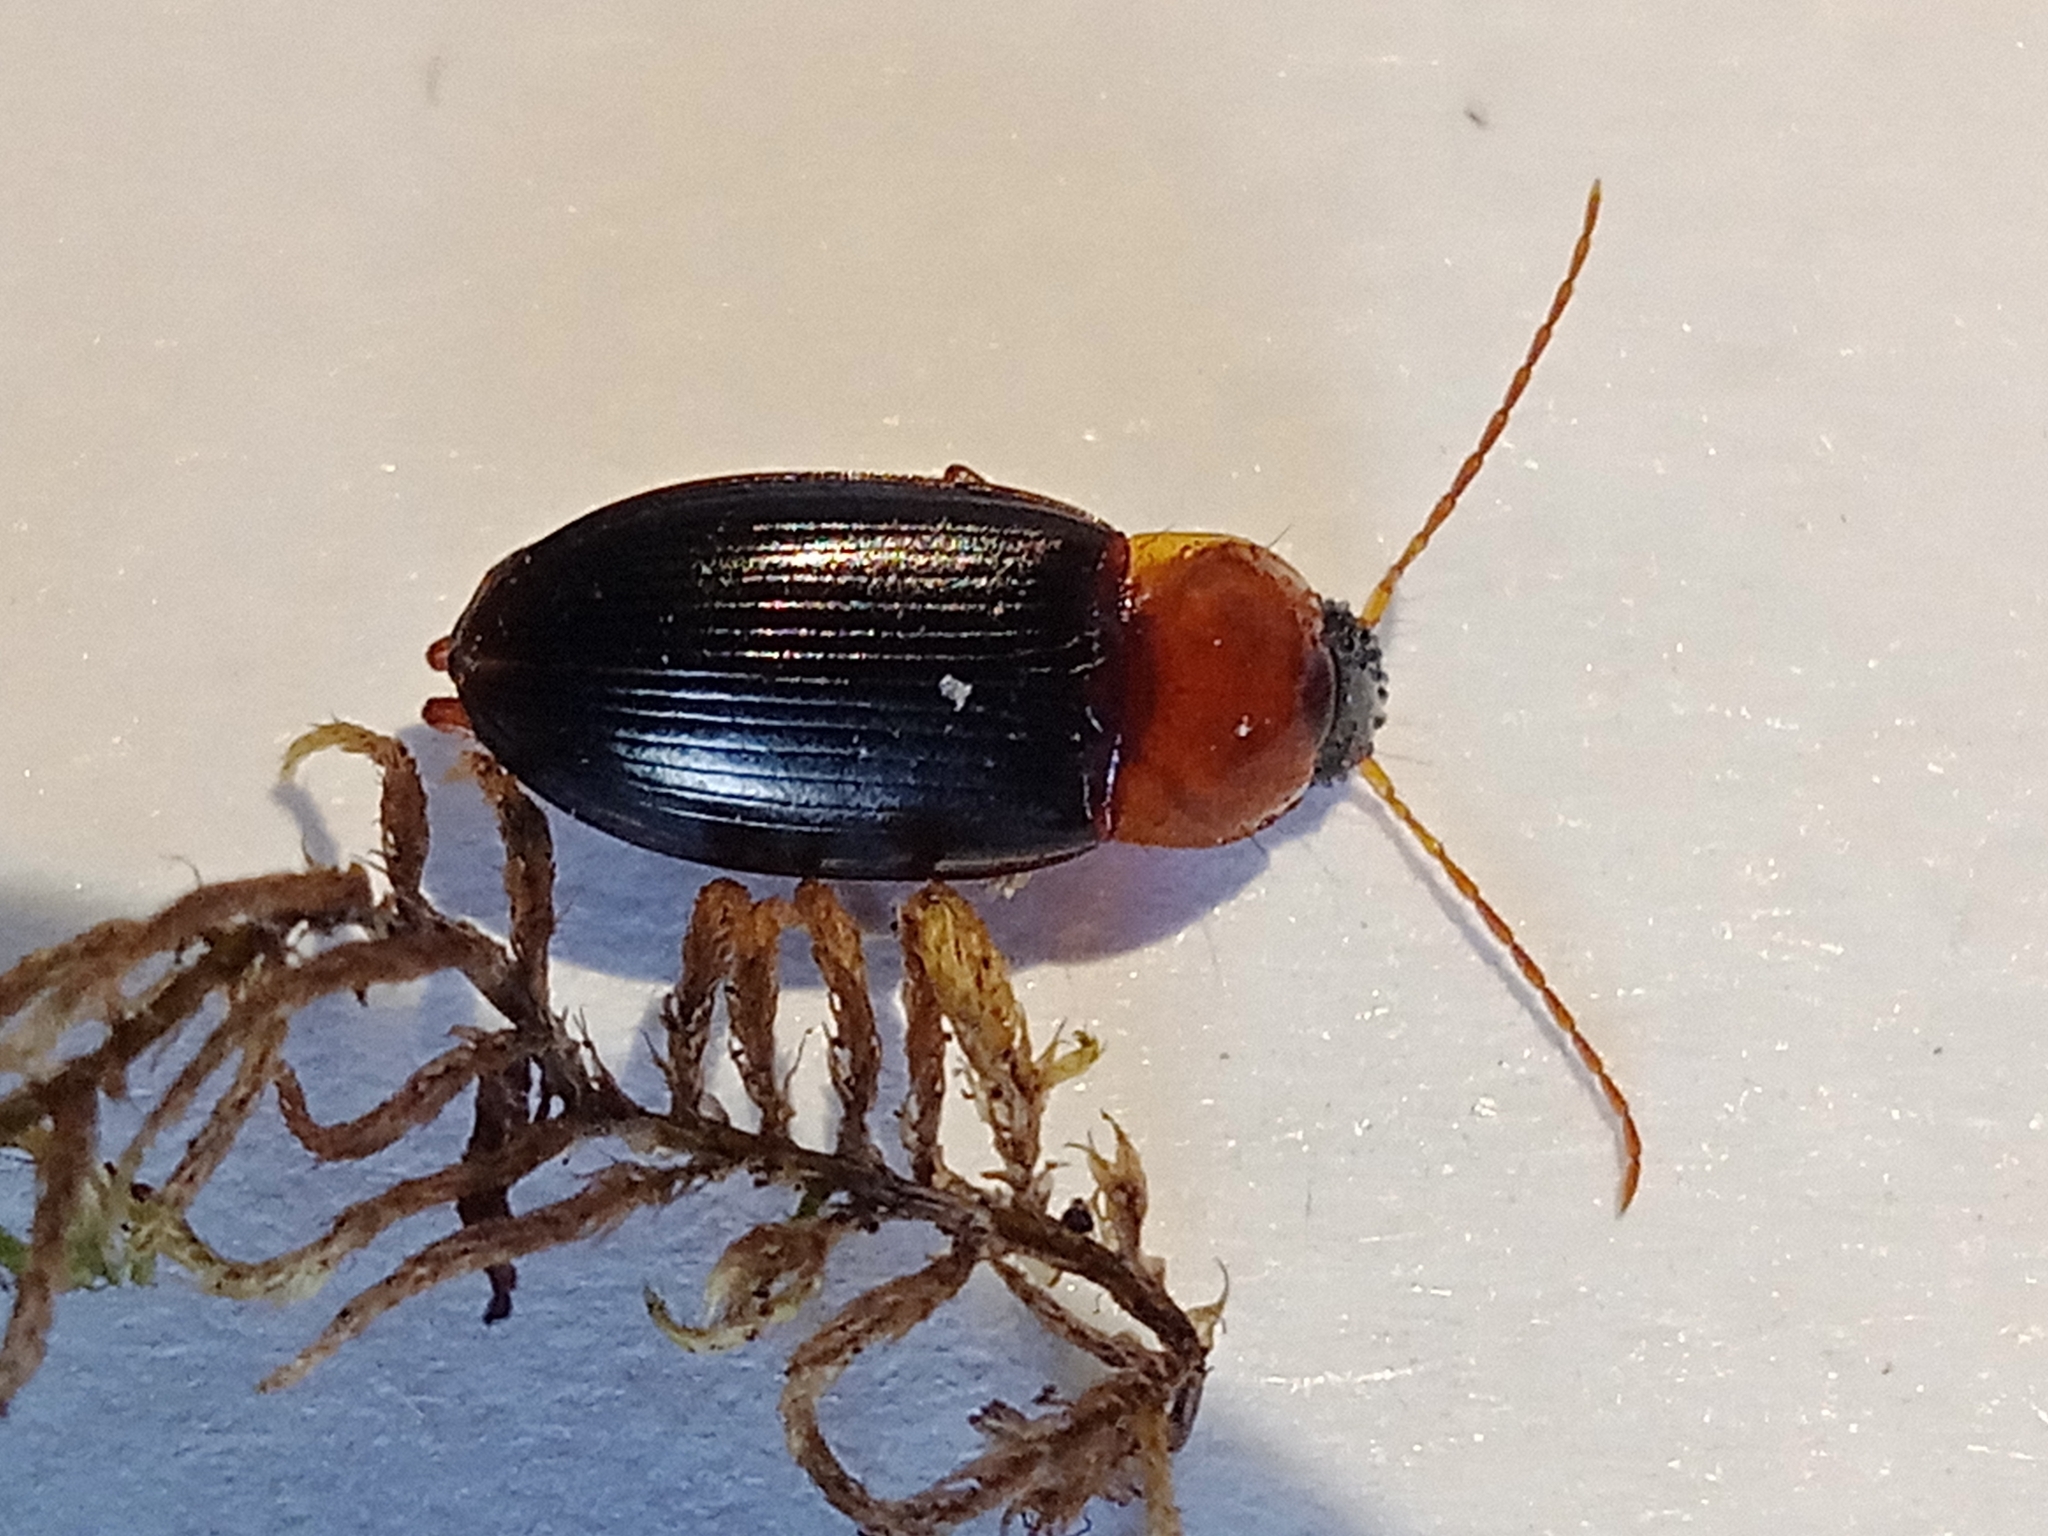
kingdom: Animalia
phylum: Arthropoda
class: Insecta
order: Coleoptera
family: Carabidae
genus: Calathus
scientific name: Calathus melanocephalus
